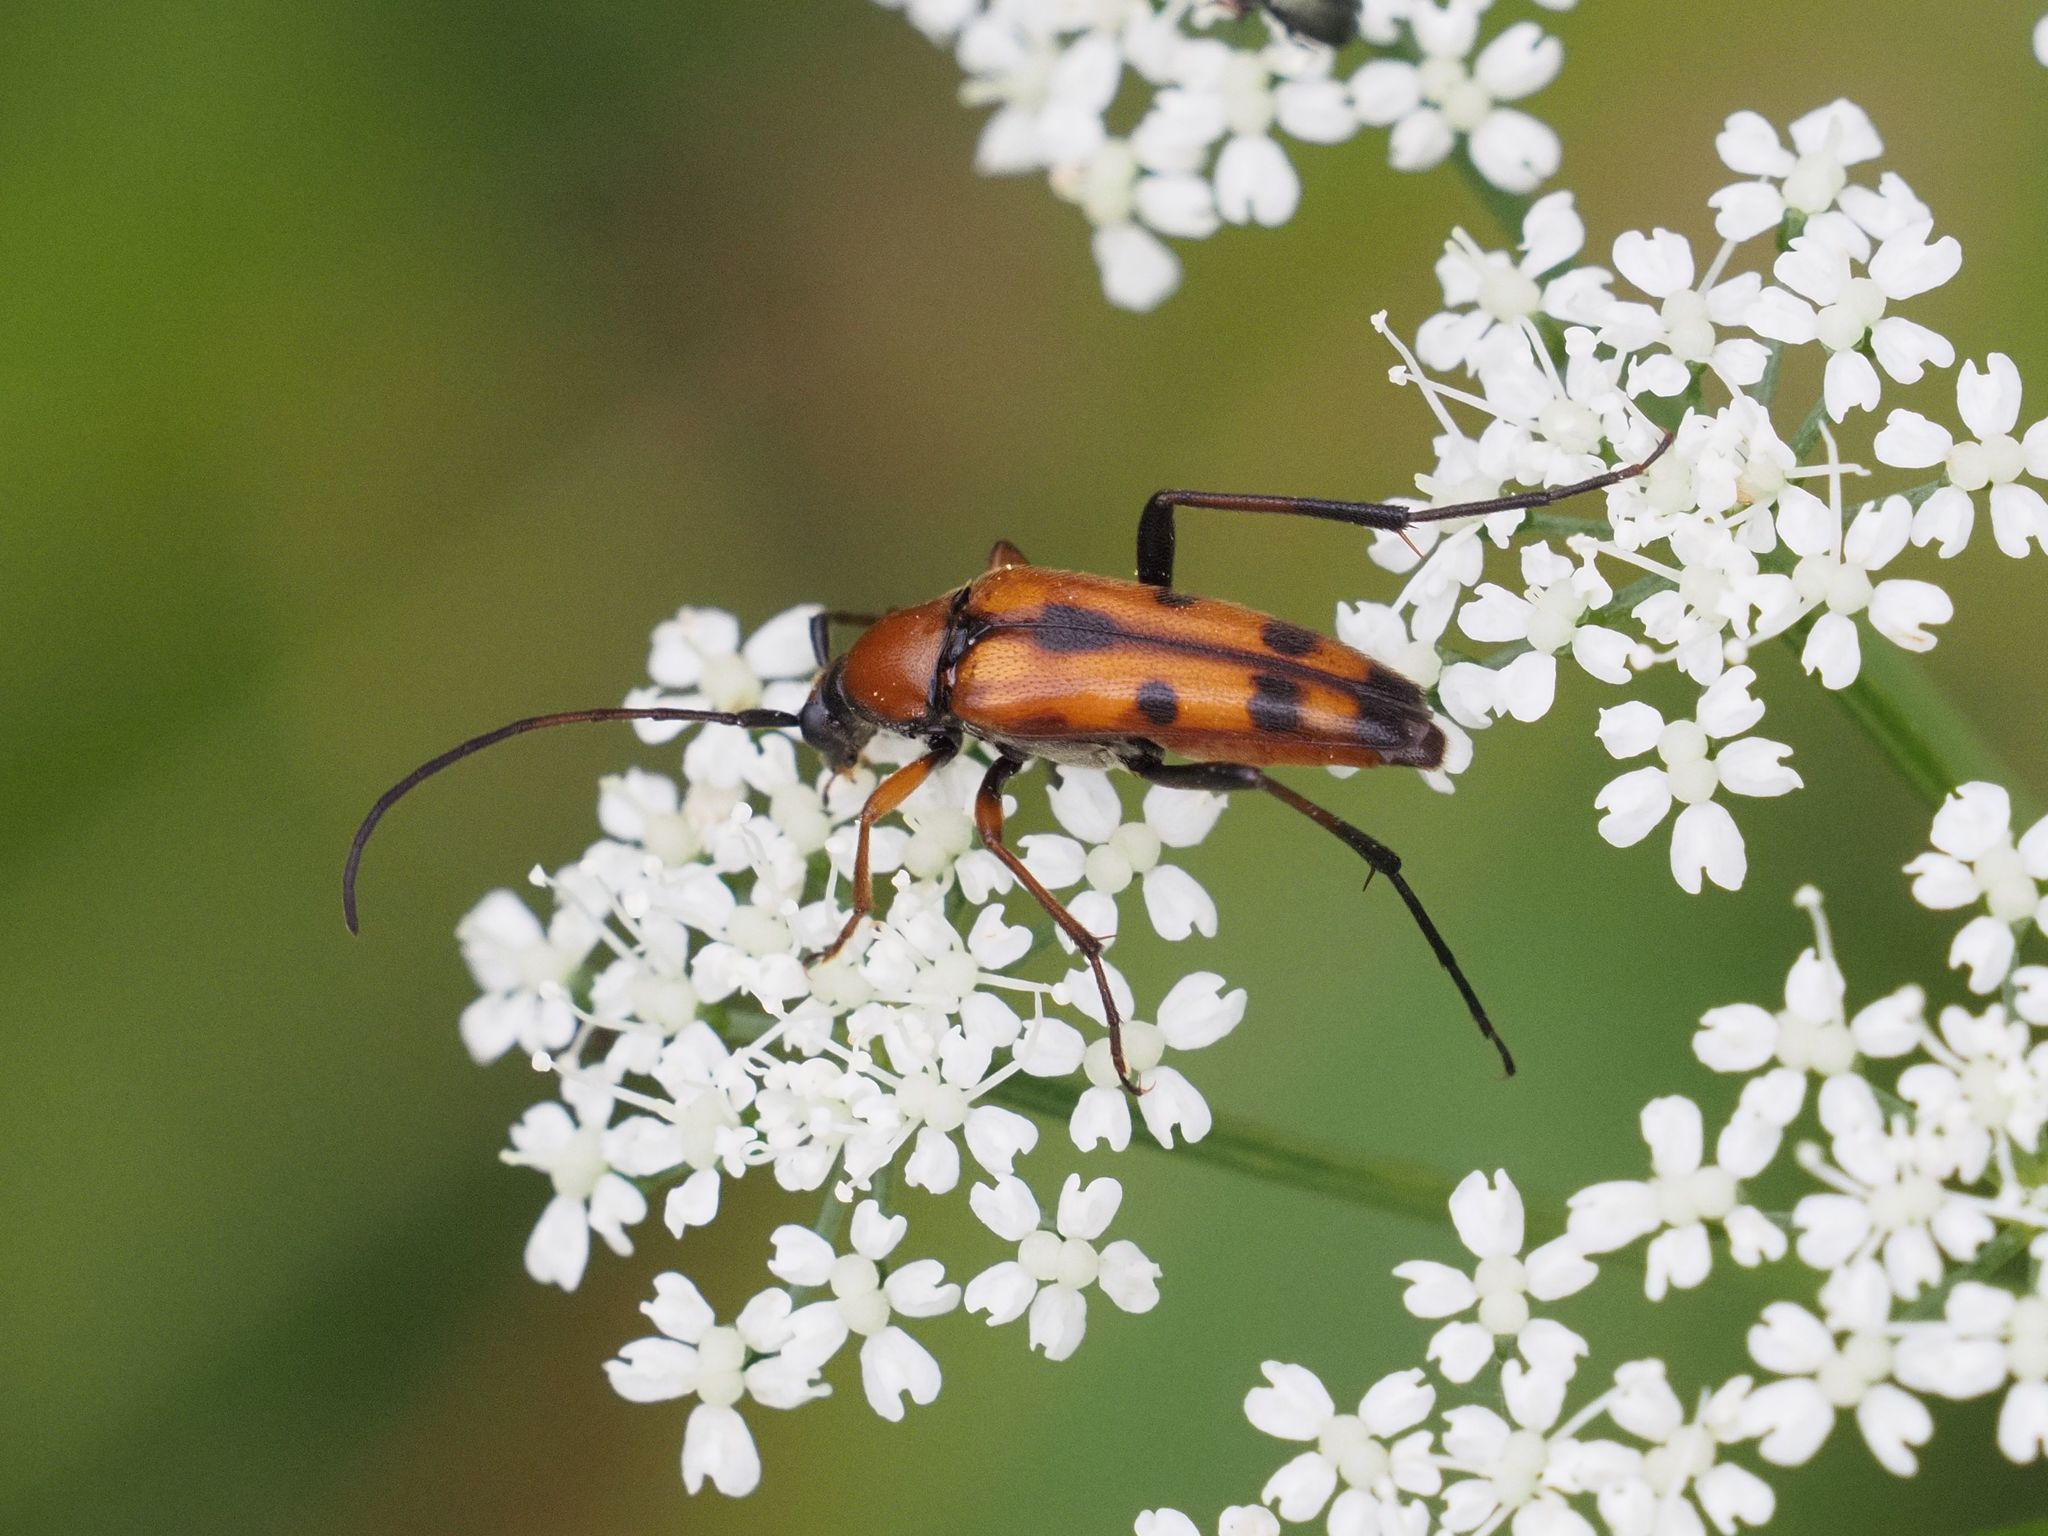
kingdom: Animalia
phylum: Arthropoda
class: Insecta
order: Coleoptera
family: Cerambycidae
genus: Stenurella
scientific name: Stenurella septempunctata
